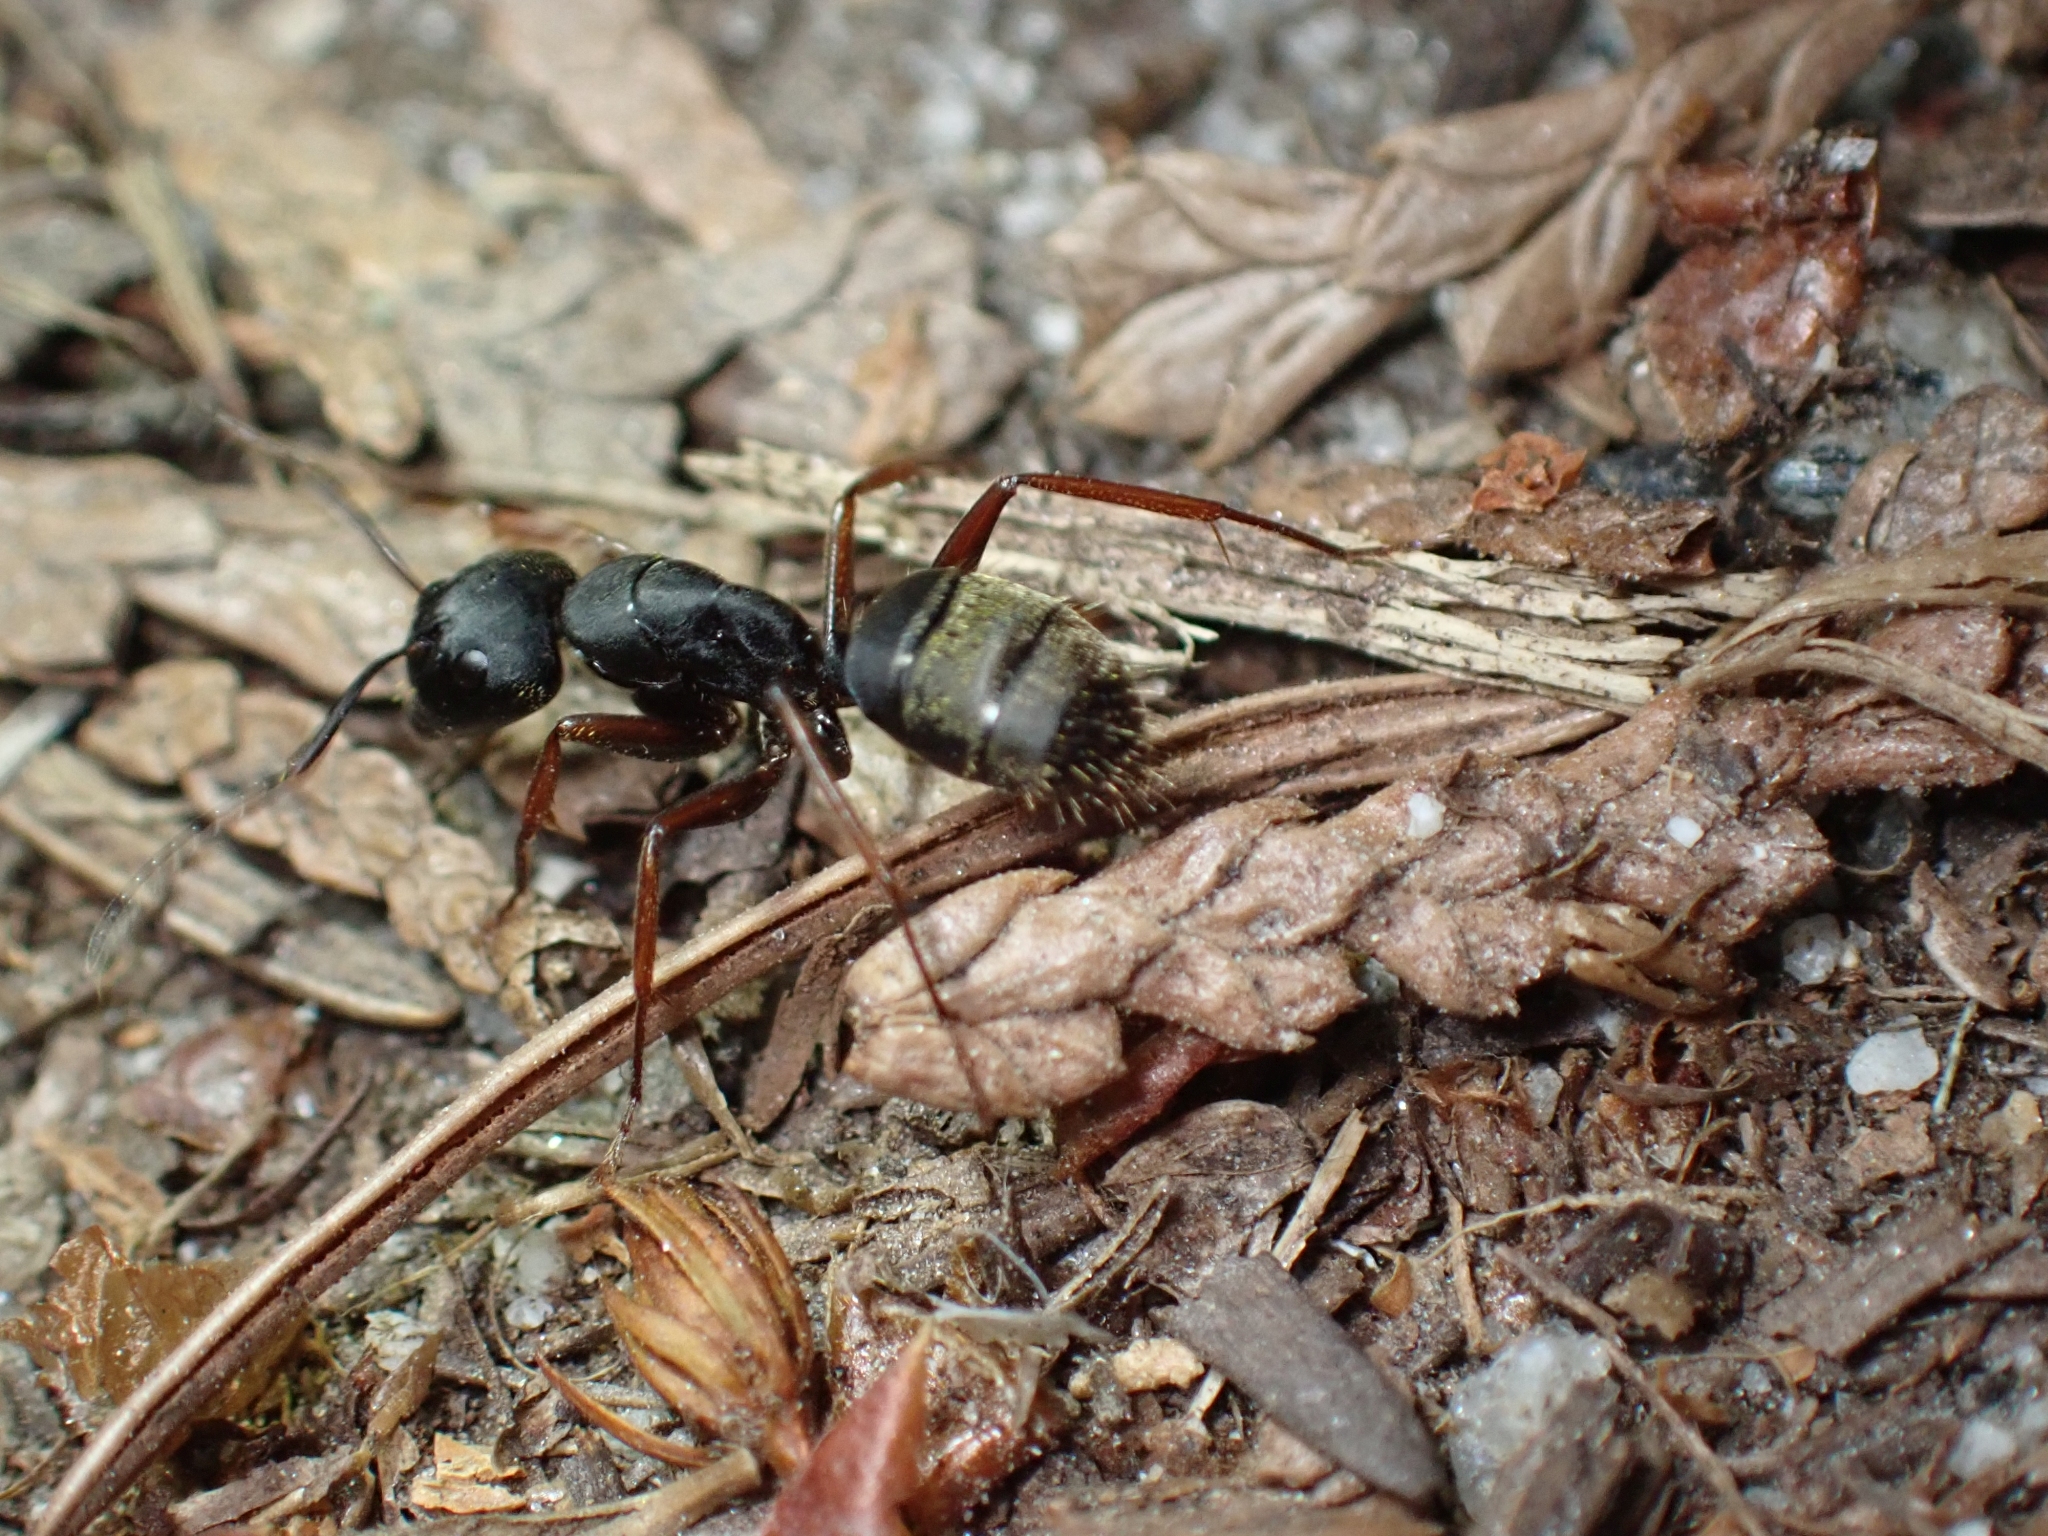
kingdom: Animalia
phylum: Arthropoda
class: Insecta
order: Hymenoptera
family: Formicidae
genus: Camponotus
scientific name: Camponotus modoc
